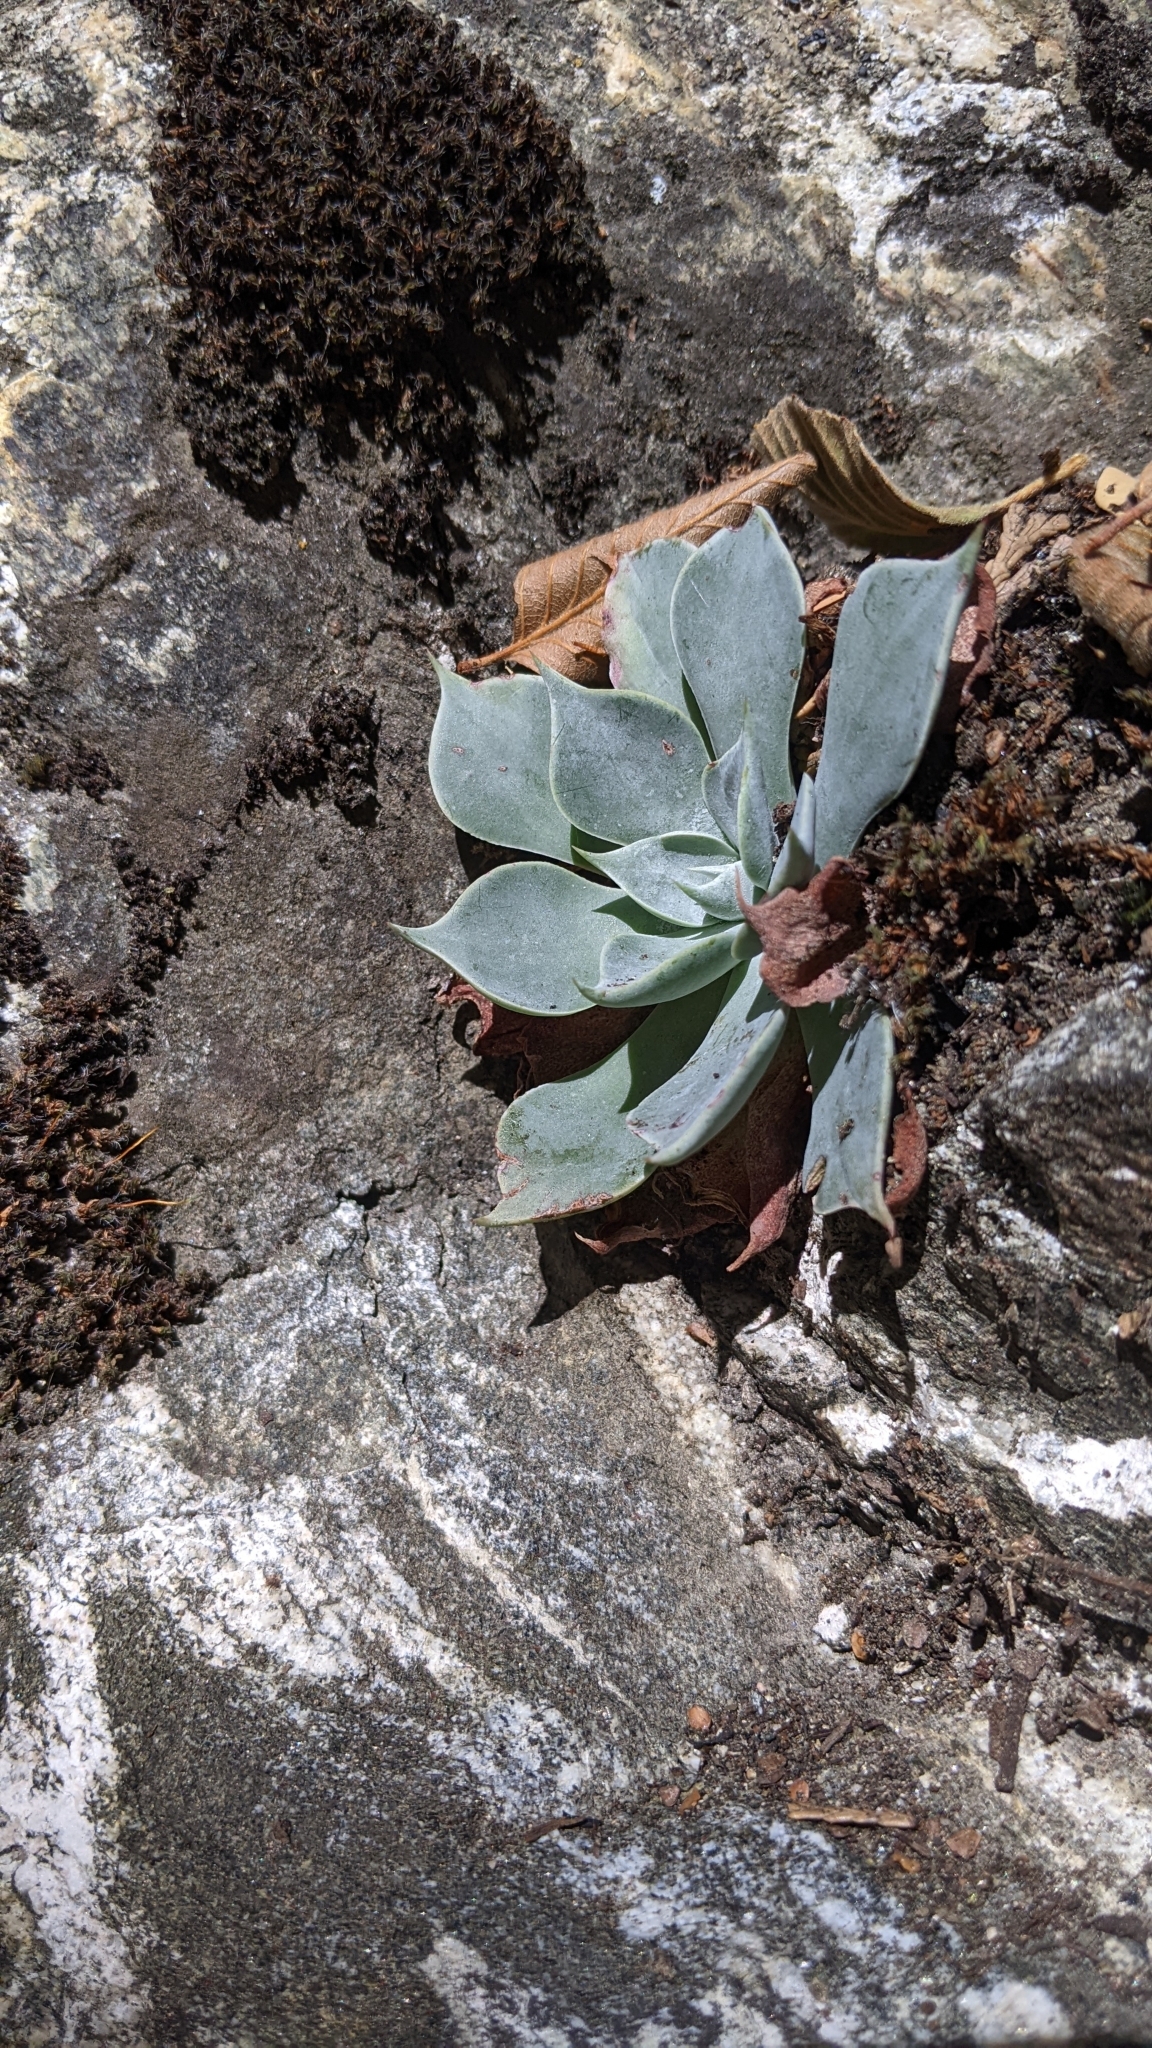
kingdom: Plantae
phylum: Tracheophyta
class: Magnoliopsida
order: Saxifragales
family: Crassulaceae
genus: Dudleya
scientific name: Dudleya cymosa
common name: Canyon dudleya
